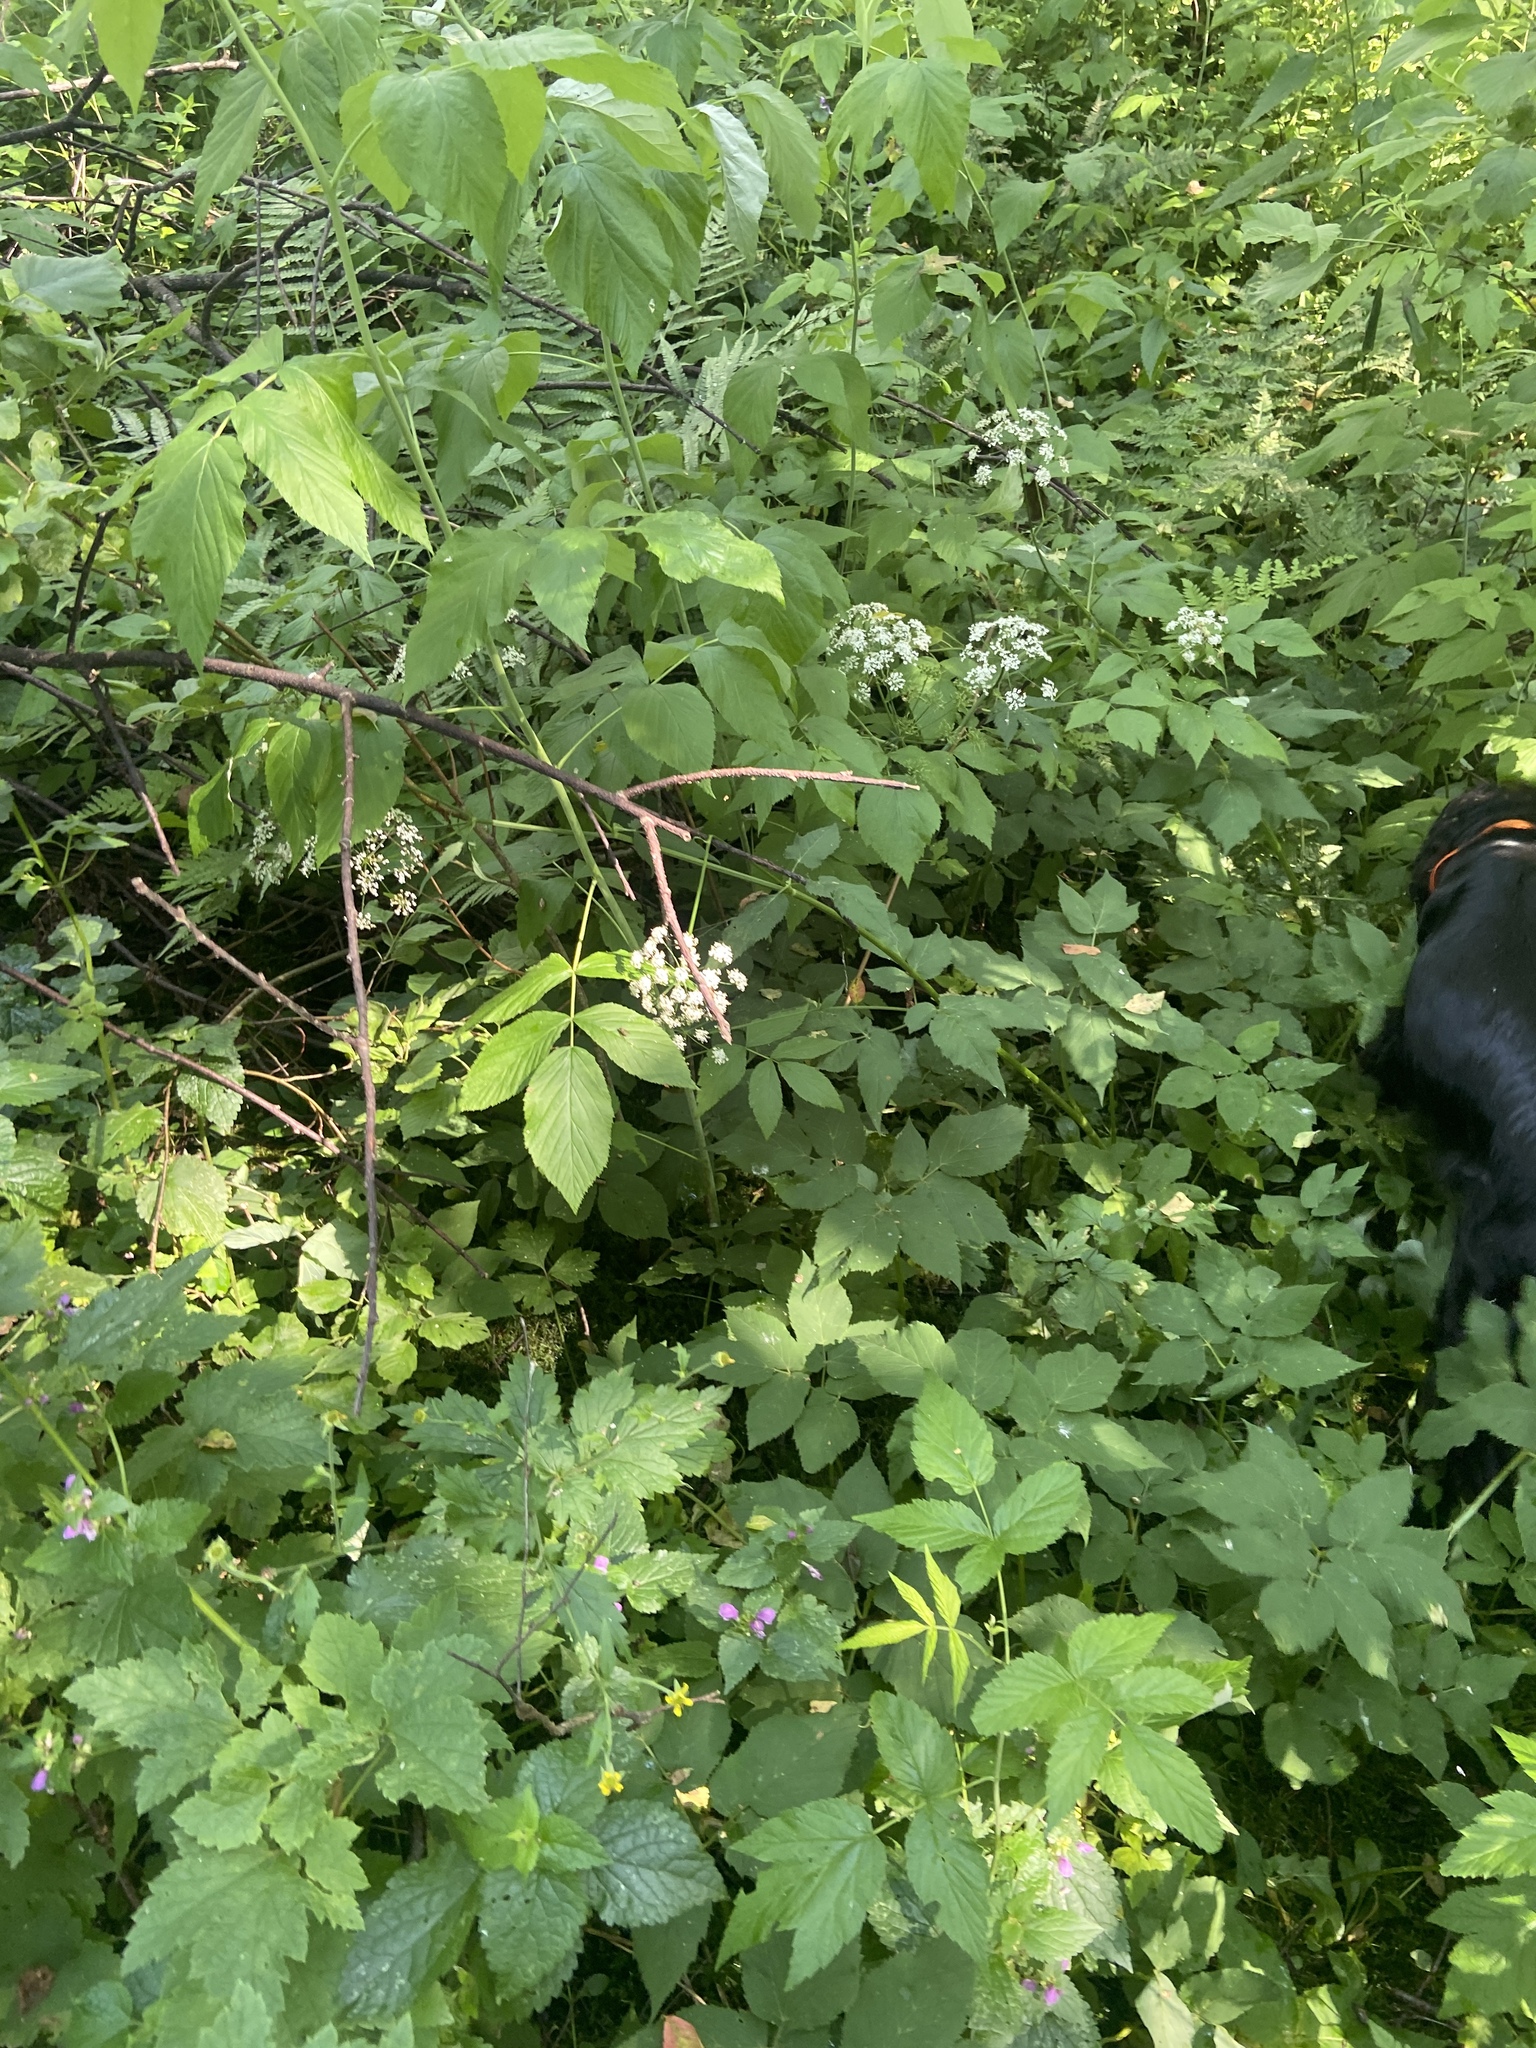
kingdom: Plantae
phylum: Tracheophyta
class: Magnoliopsida
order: Rosales
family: Rosaceae
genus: Rubus
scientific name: Rubus idaeus
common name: Raspberry
